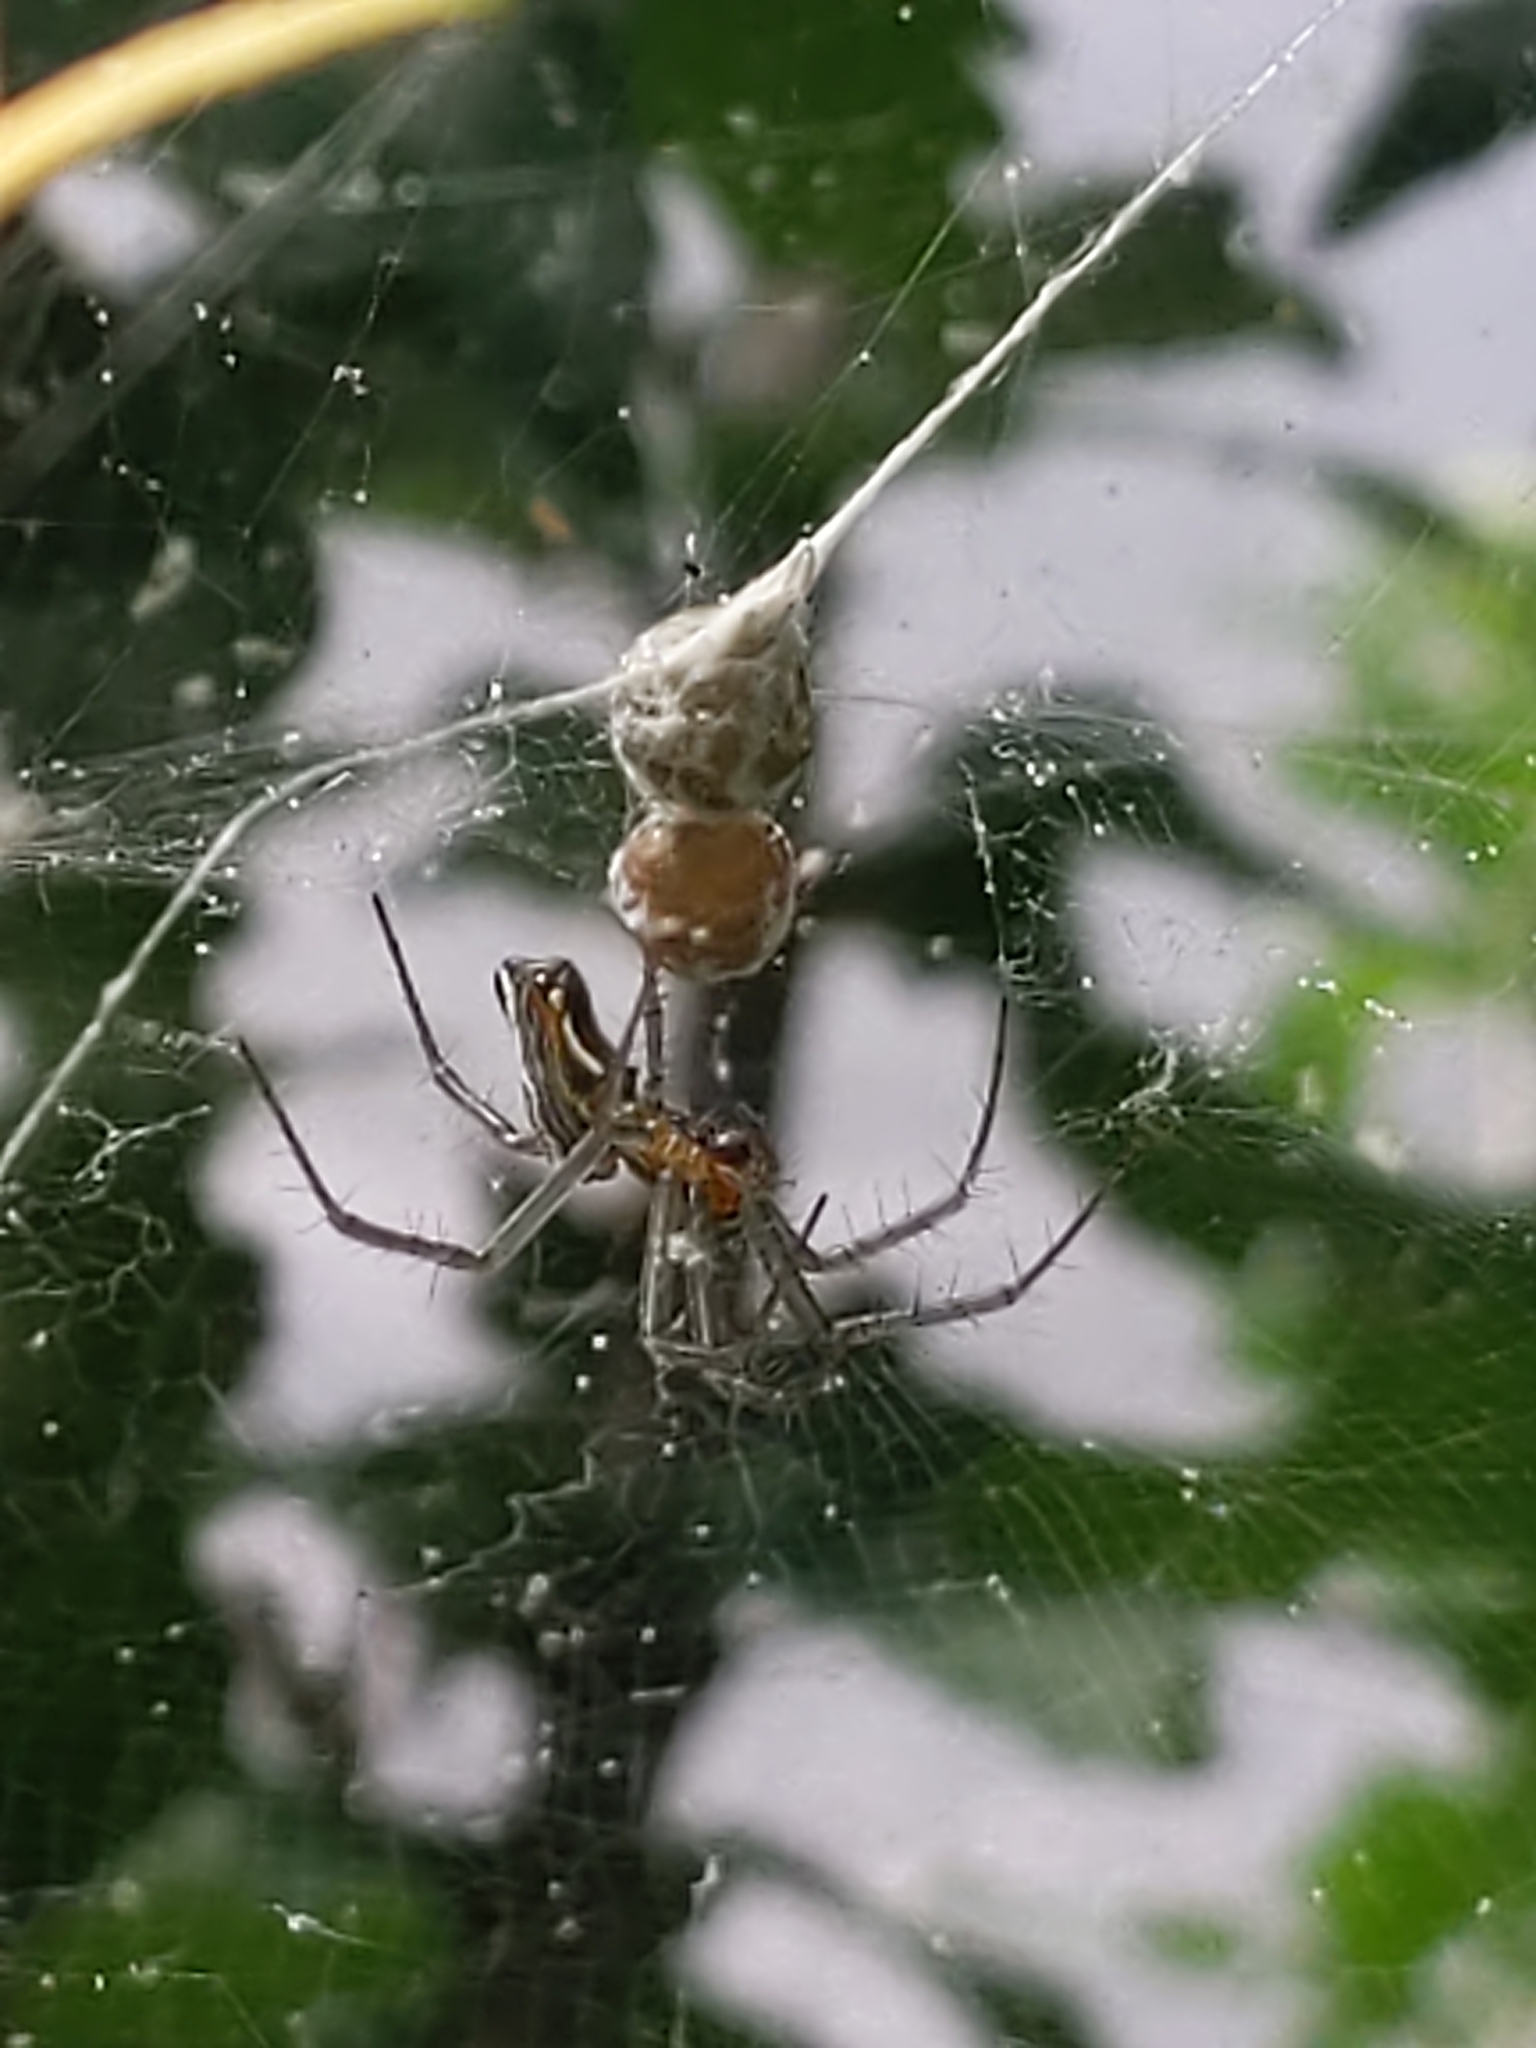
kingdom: Animalia
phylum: Arthropoda
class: Arachnida
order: Araneae
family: Araneidae
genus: Mecynogea
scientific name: Mecynogea lemniscata
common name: Orb weavers
